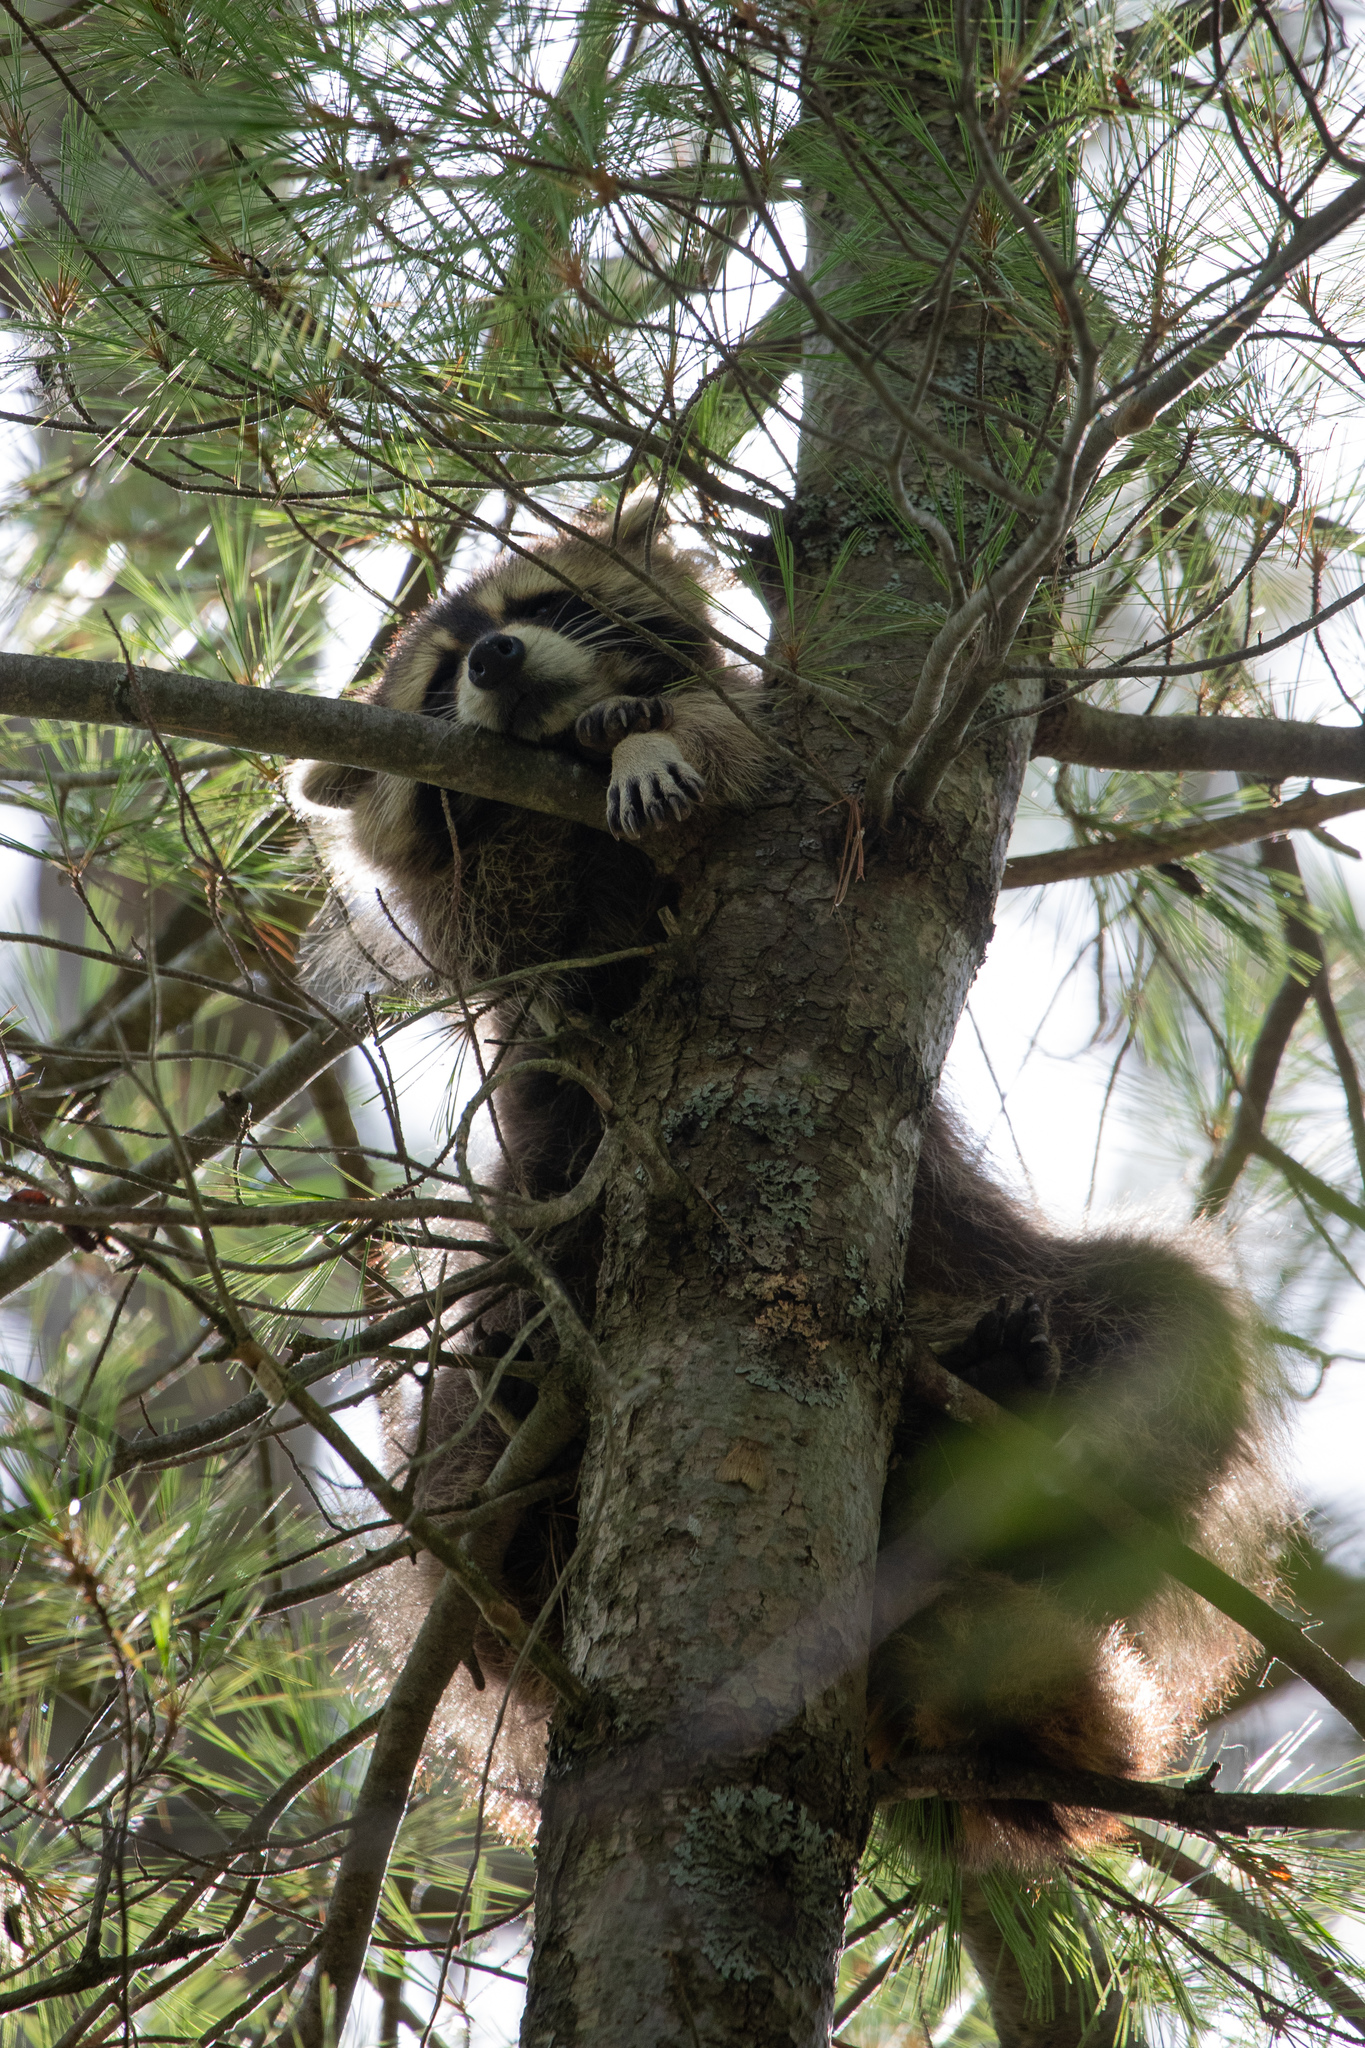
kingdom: Animalia
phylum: Chordata
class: Mammalia
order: Carnivora
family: Procyonidae
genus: Procyon
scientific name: Procyon lotor
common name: Raccoon
